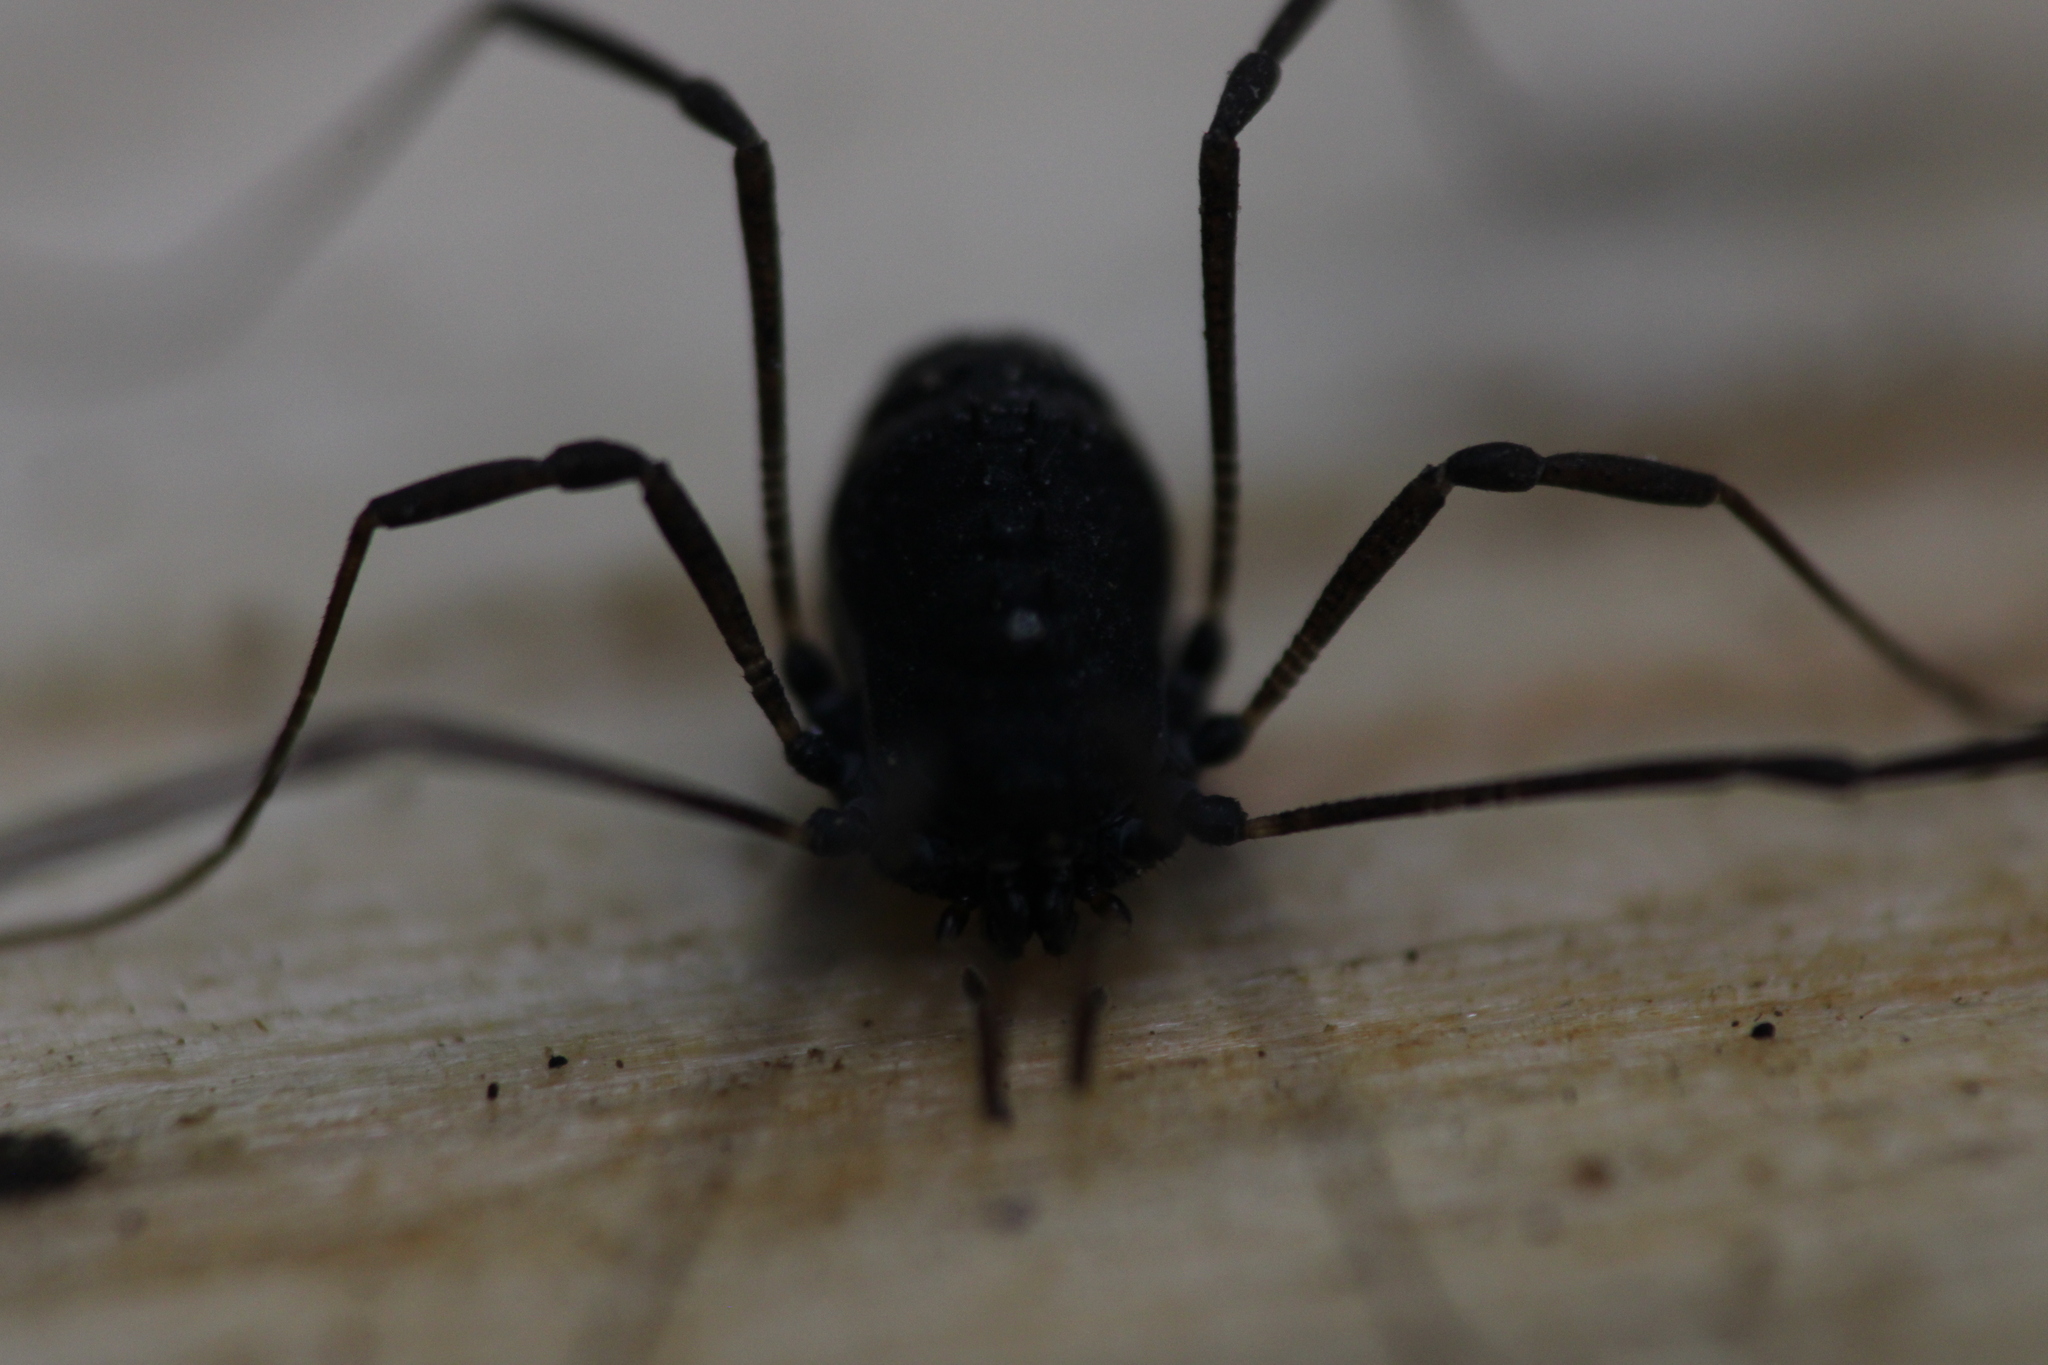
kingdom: Animalia
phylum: Arthropoda
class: Arachnida
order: Opiliones
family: Nemastomatidae
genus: Histricostoma
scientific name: Histricostoma dentipalpe
